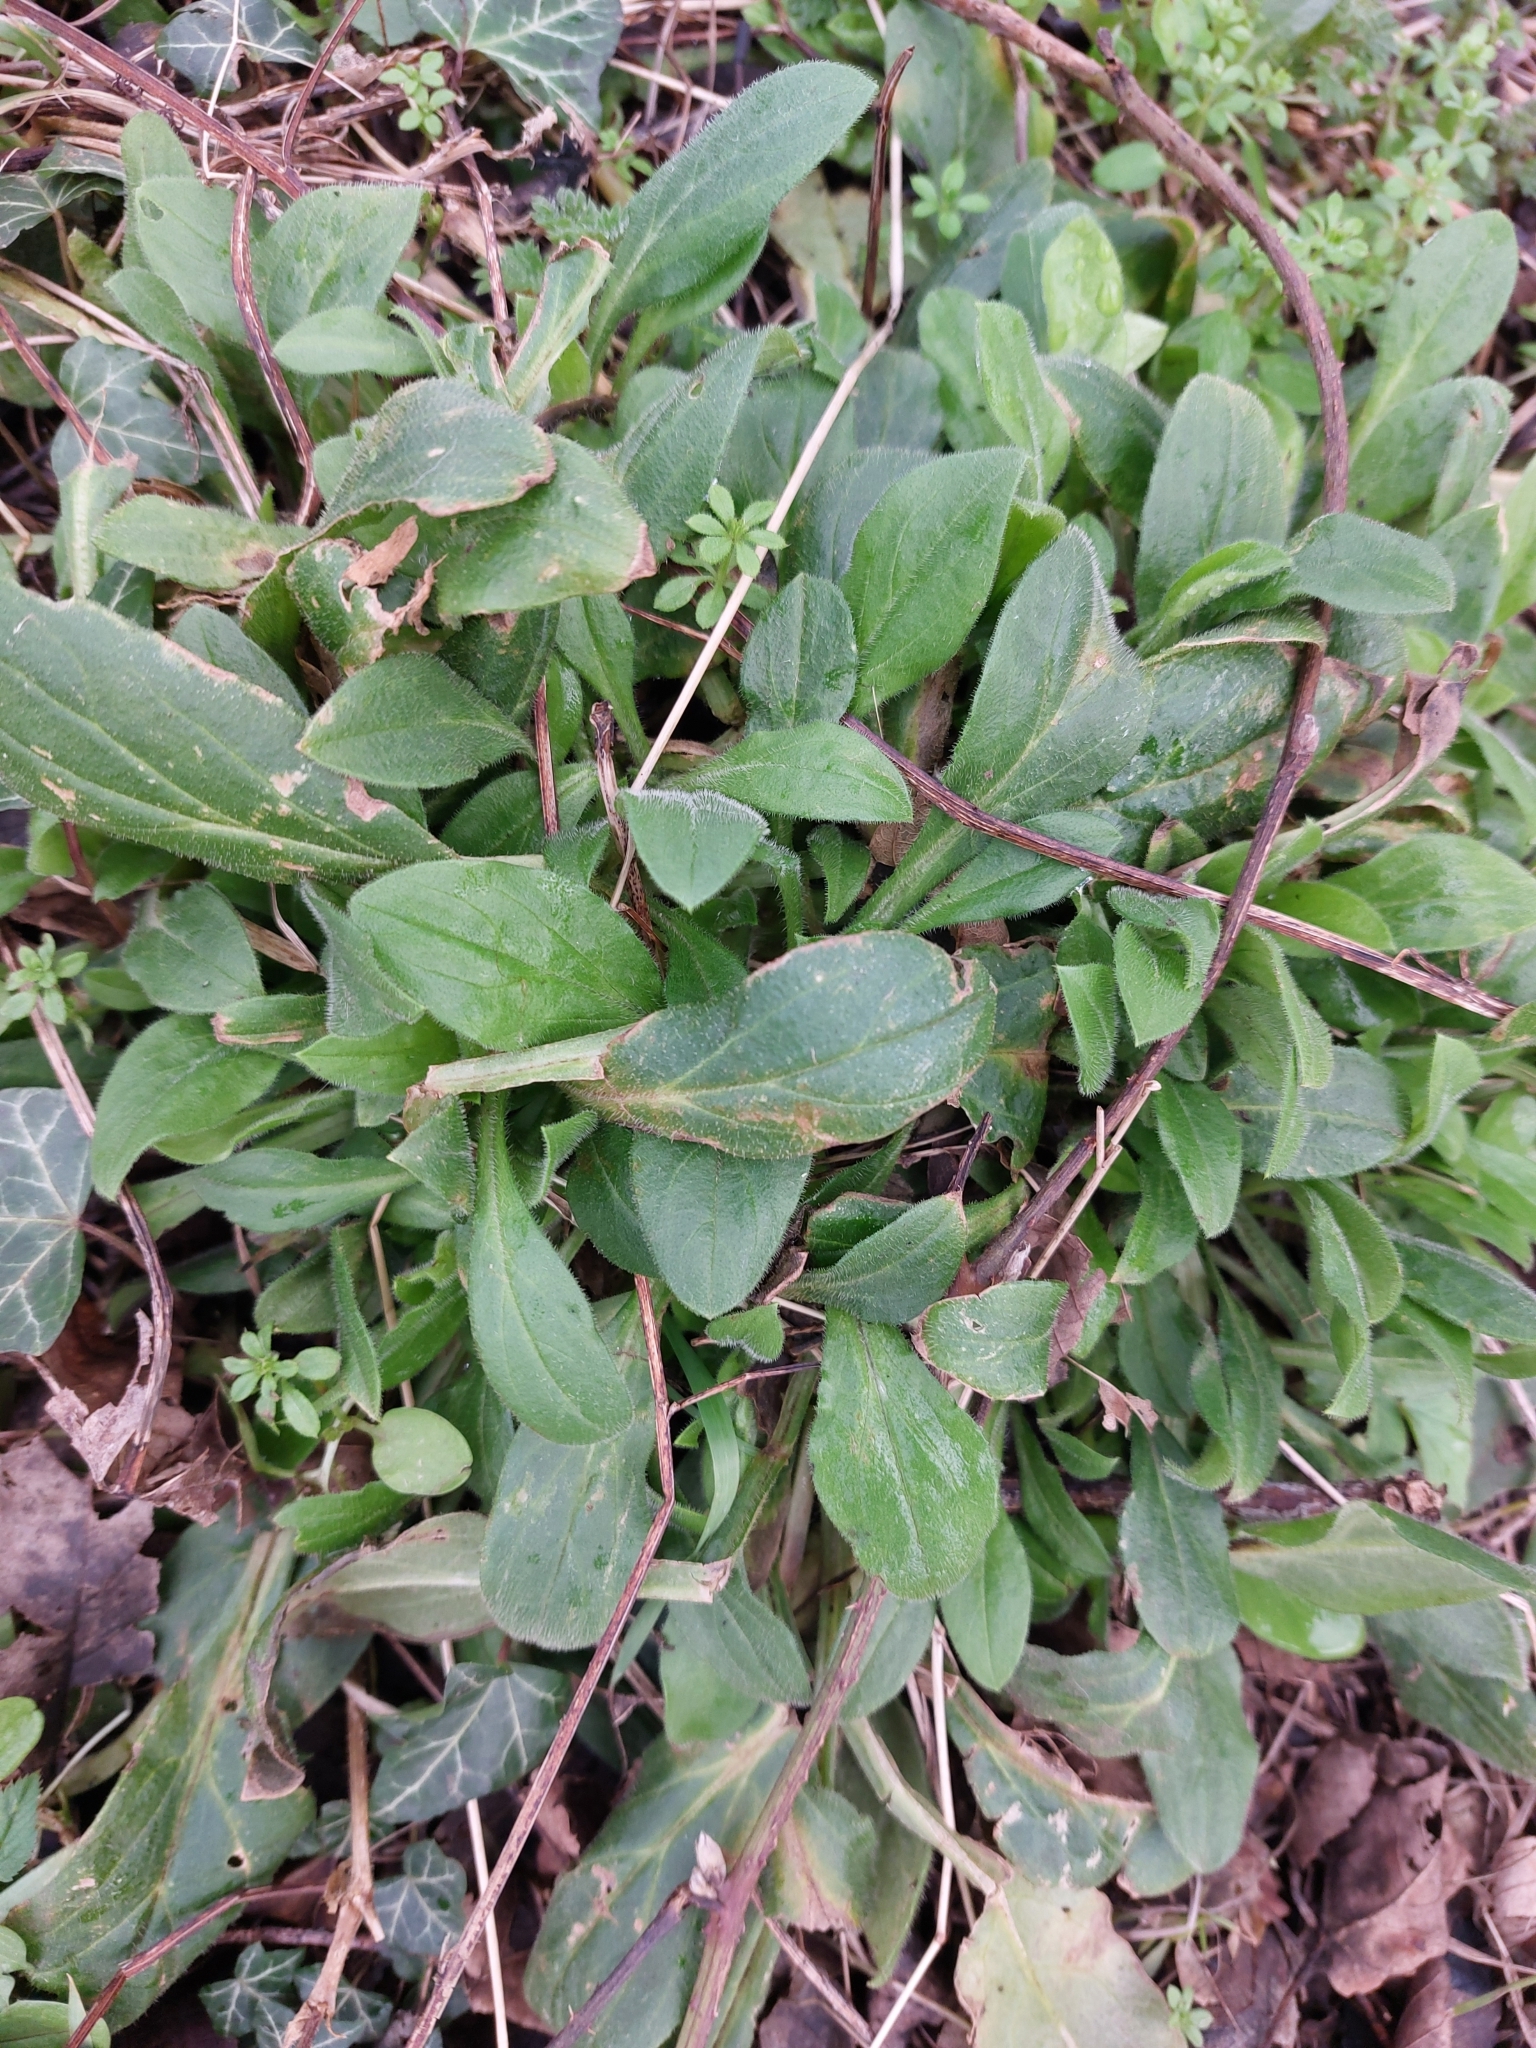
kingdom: Plantae
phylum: Tracheophyta
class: Magnoliopsida
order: Caryophyllales
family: Caryophyllaceae
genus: Silene
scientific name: Silene dioica
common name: Red campion
